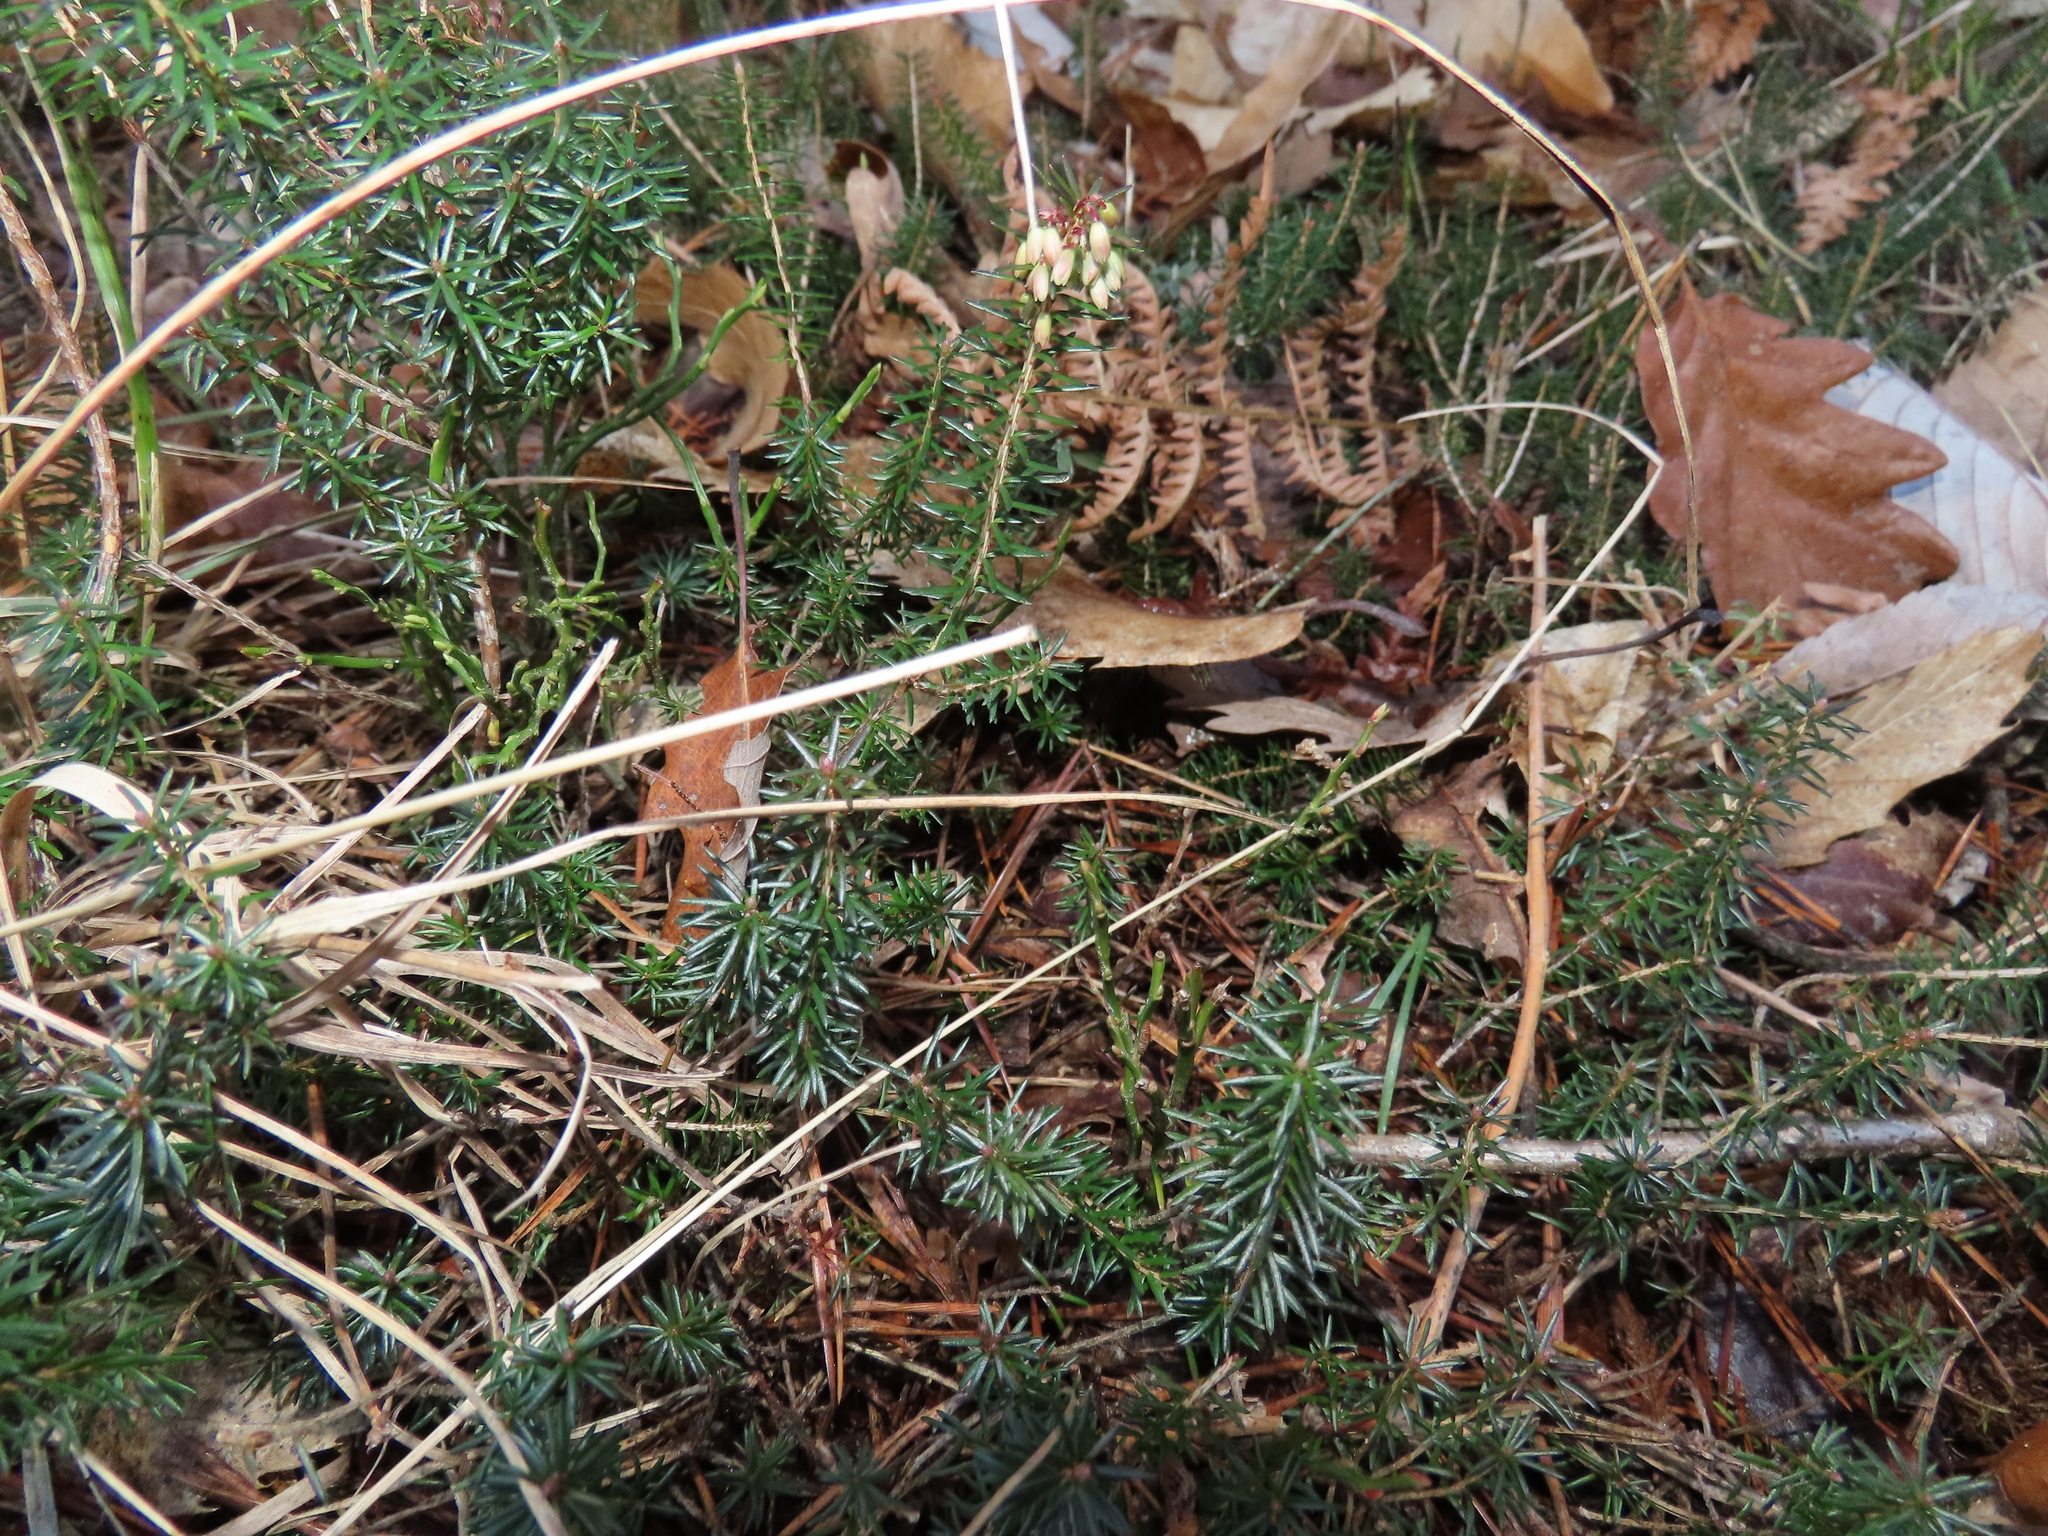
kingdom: Plantae
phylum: Tracheophyta
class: Magnoliopsida
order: Ericales
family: Ericaceae
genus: Erica
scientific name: Erica carnea
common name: Winter heath
